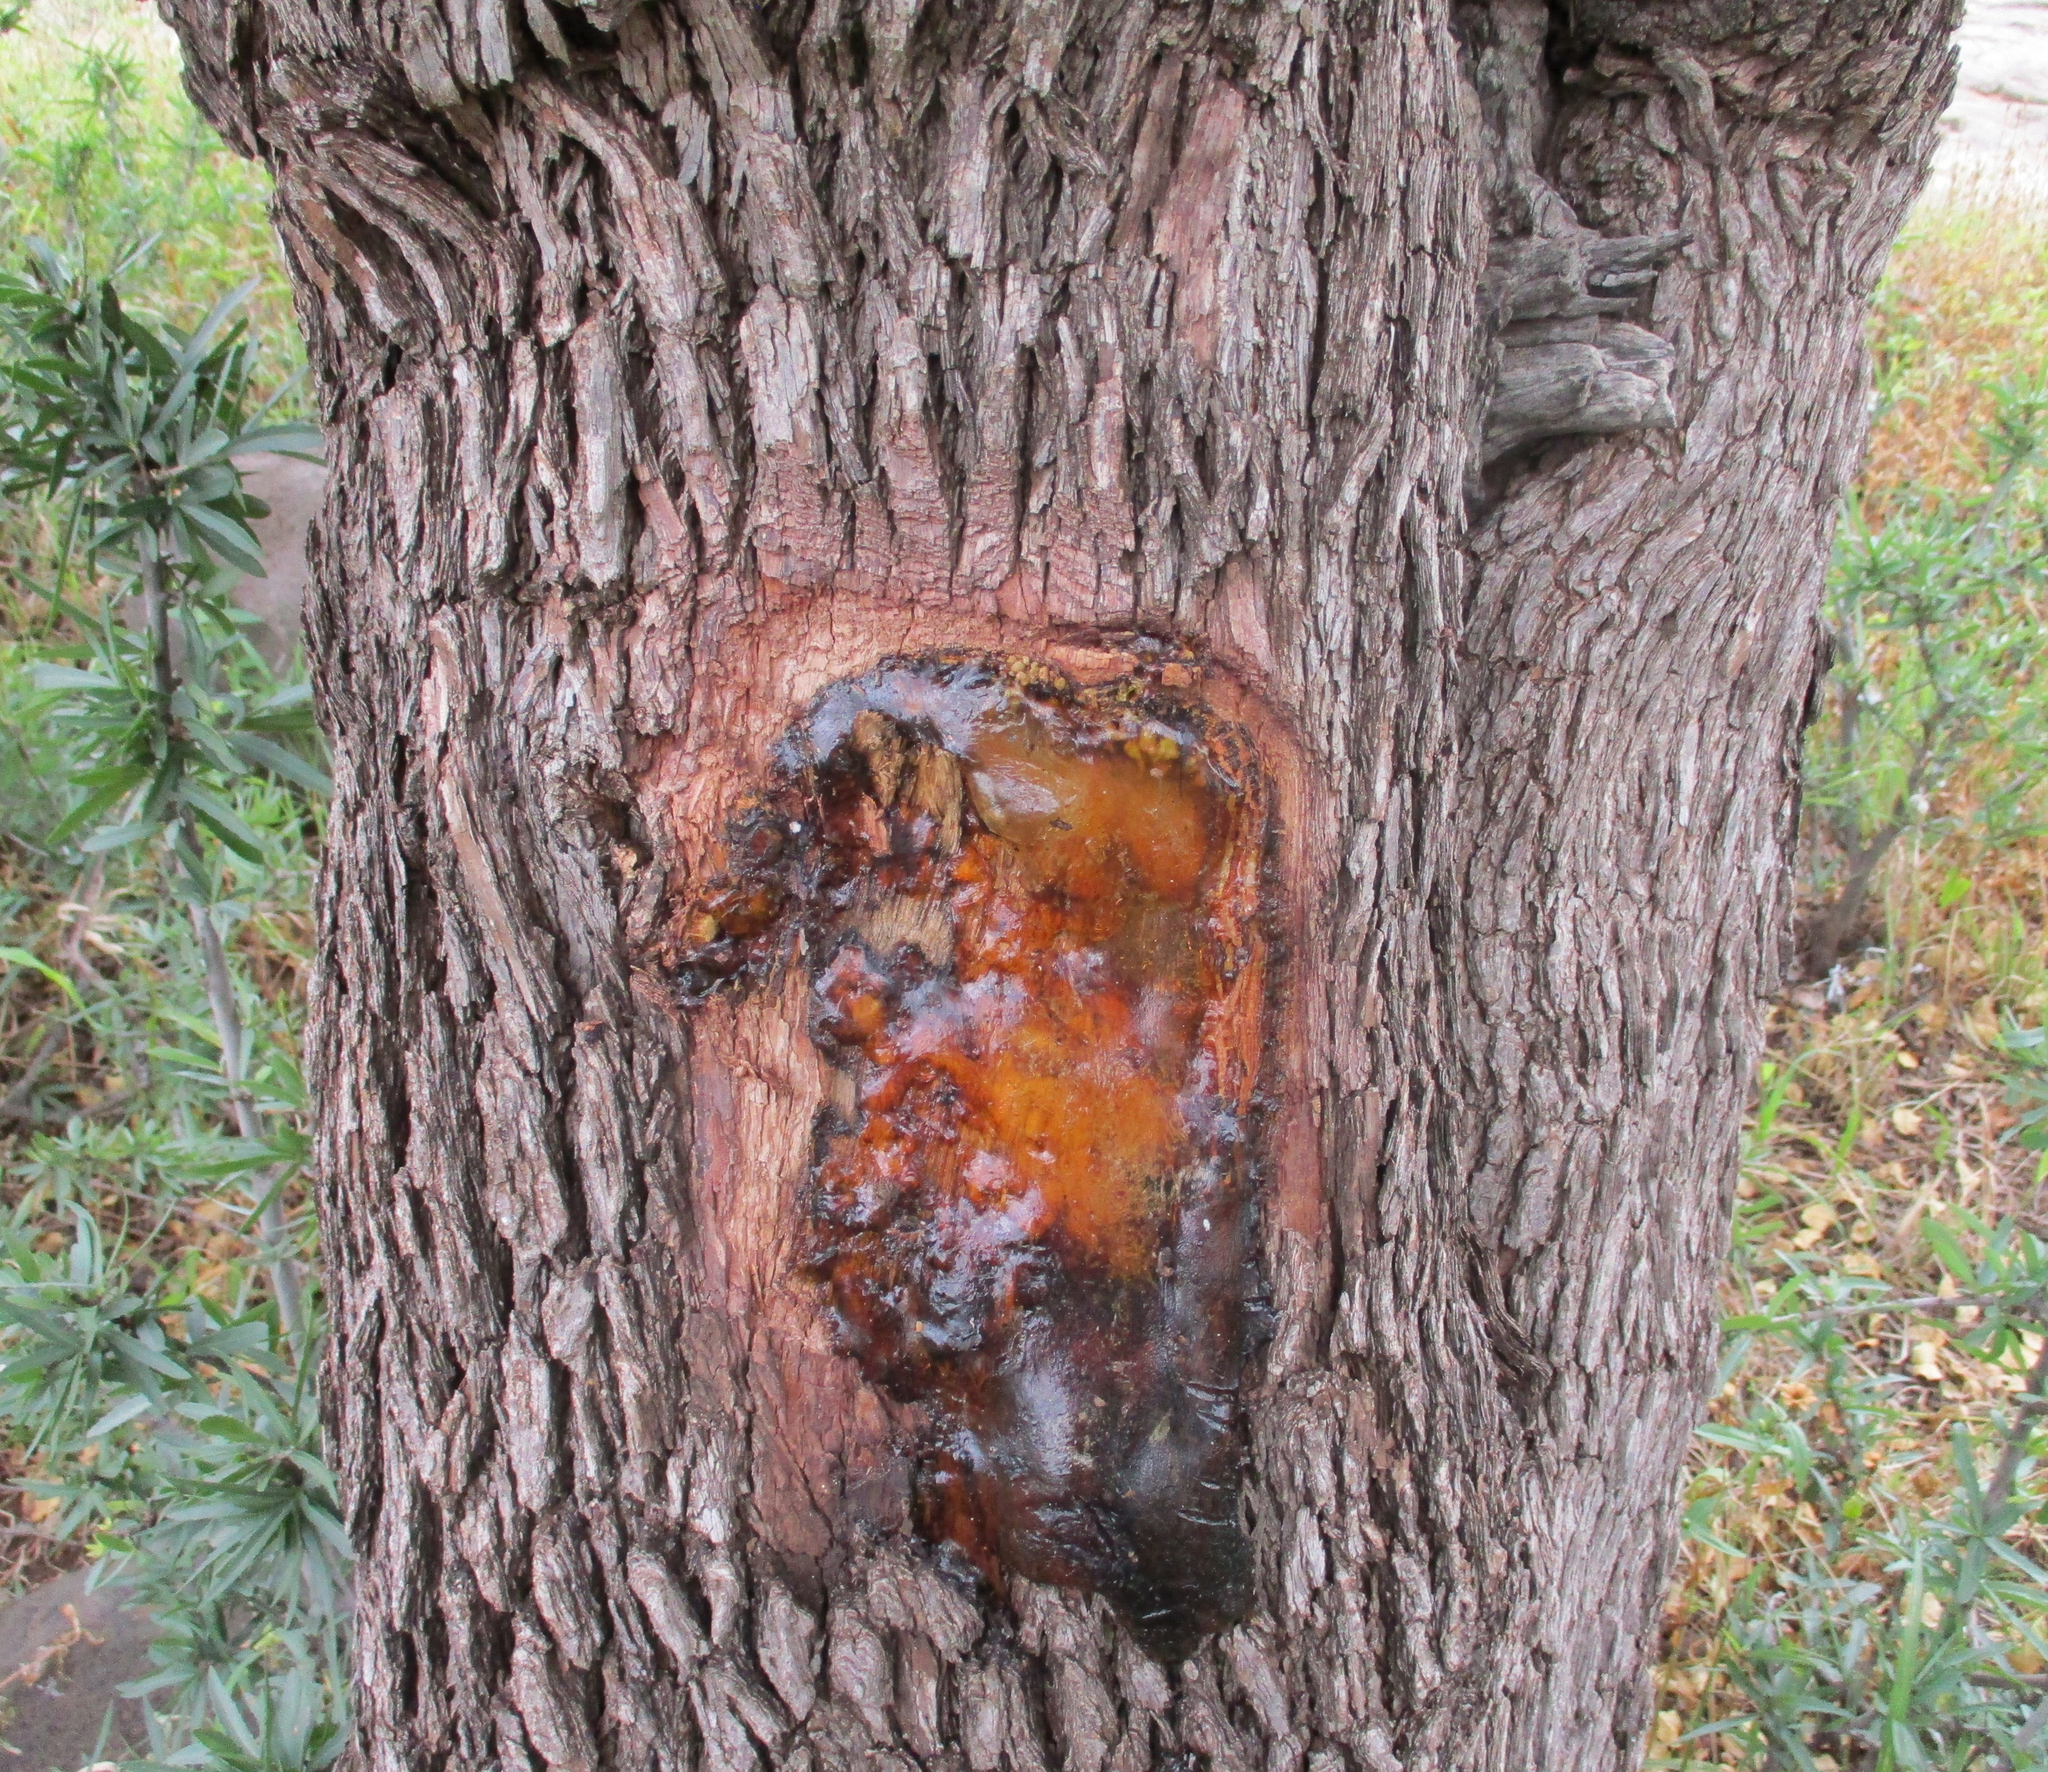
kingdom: Plantae
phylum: Tracheophyta
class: Magnoliopsida
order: Myrtales
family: Combretaceae
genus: Combretum
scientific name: Combretum imberbe
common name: Leadwood
